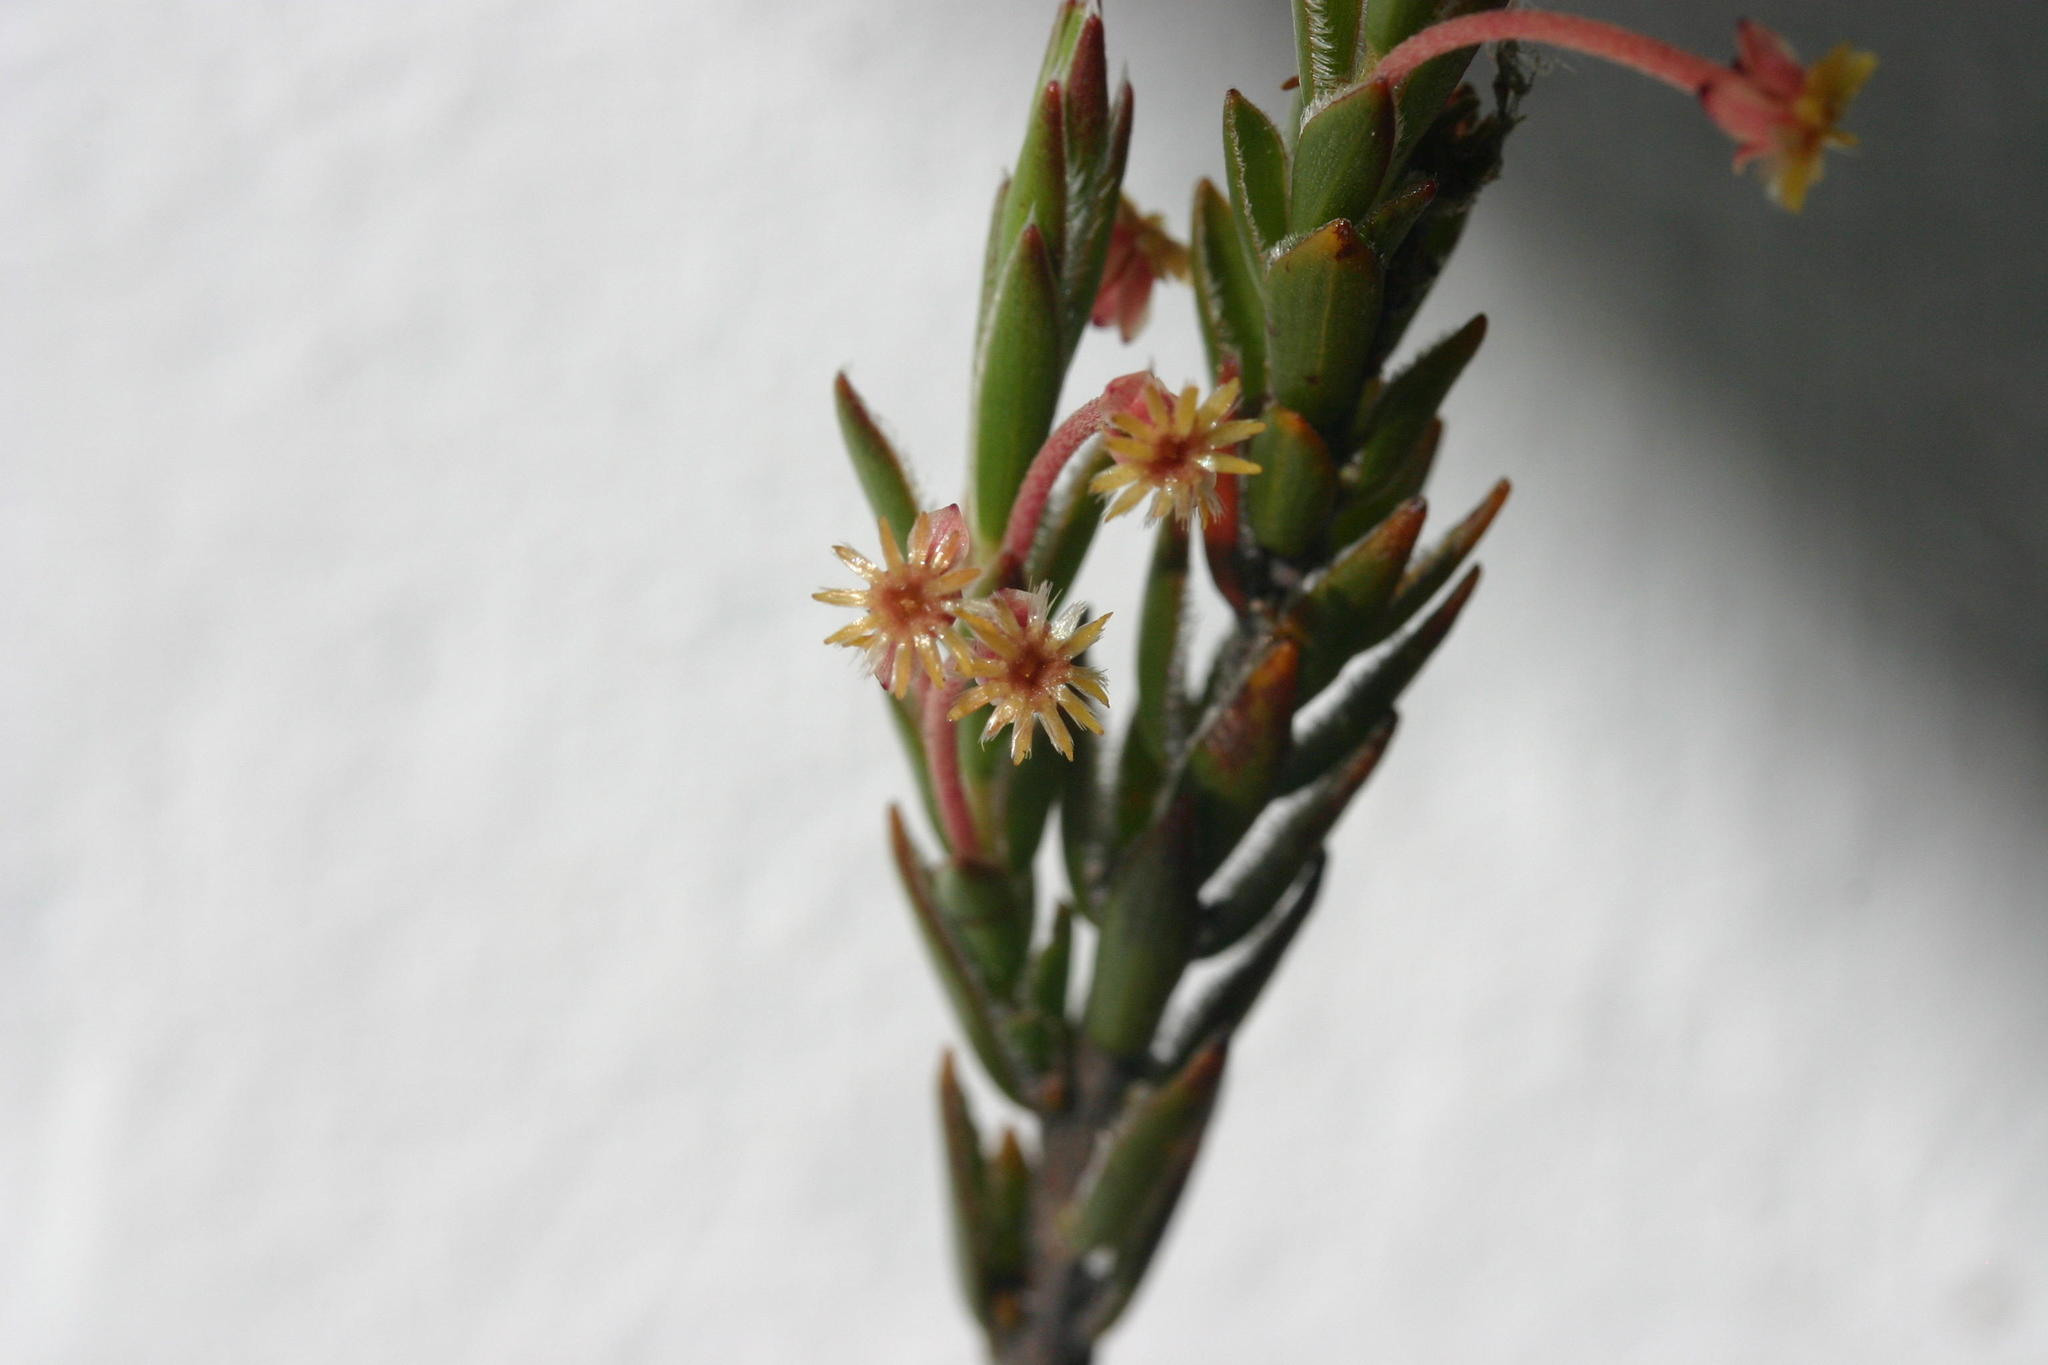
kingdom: Plantae
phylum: Tracheophyta
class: Magnoliopsida
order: Malvales
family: Thymelaeaceae
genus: Struthiola
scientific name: Struthiola garciana
